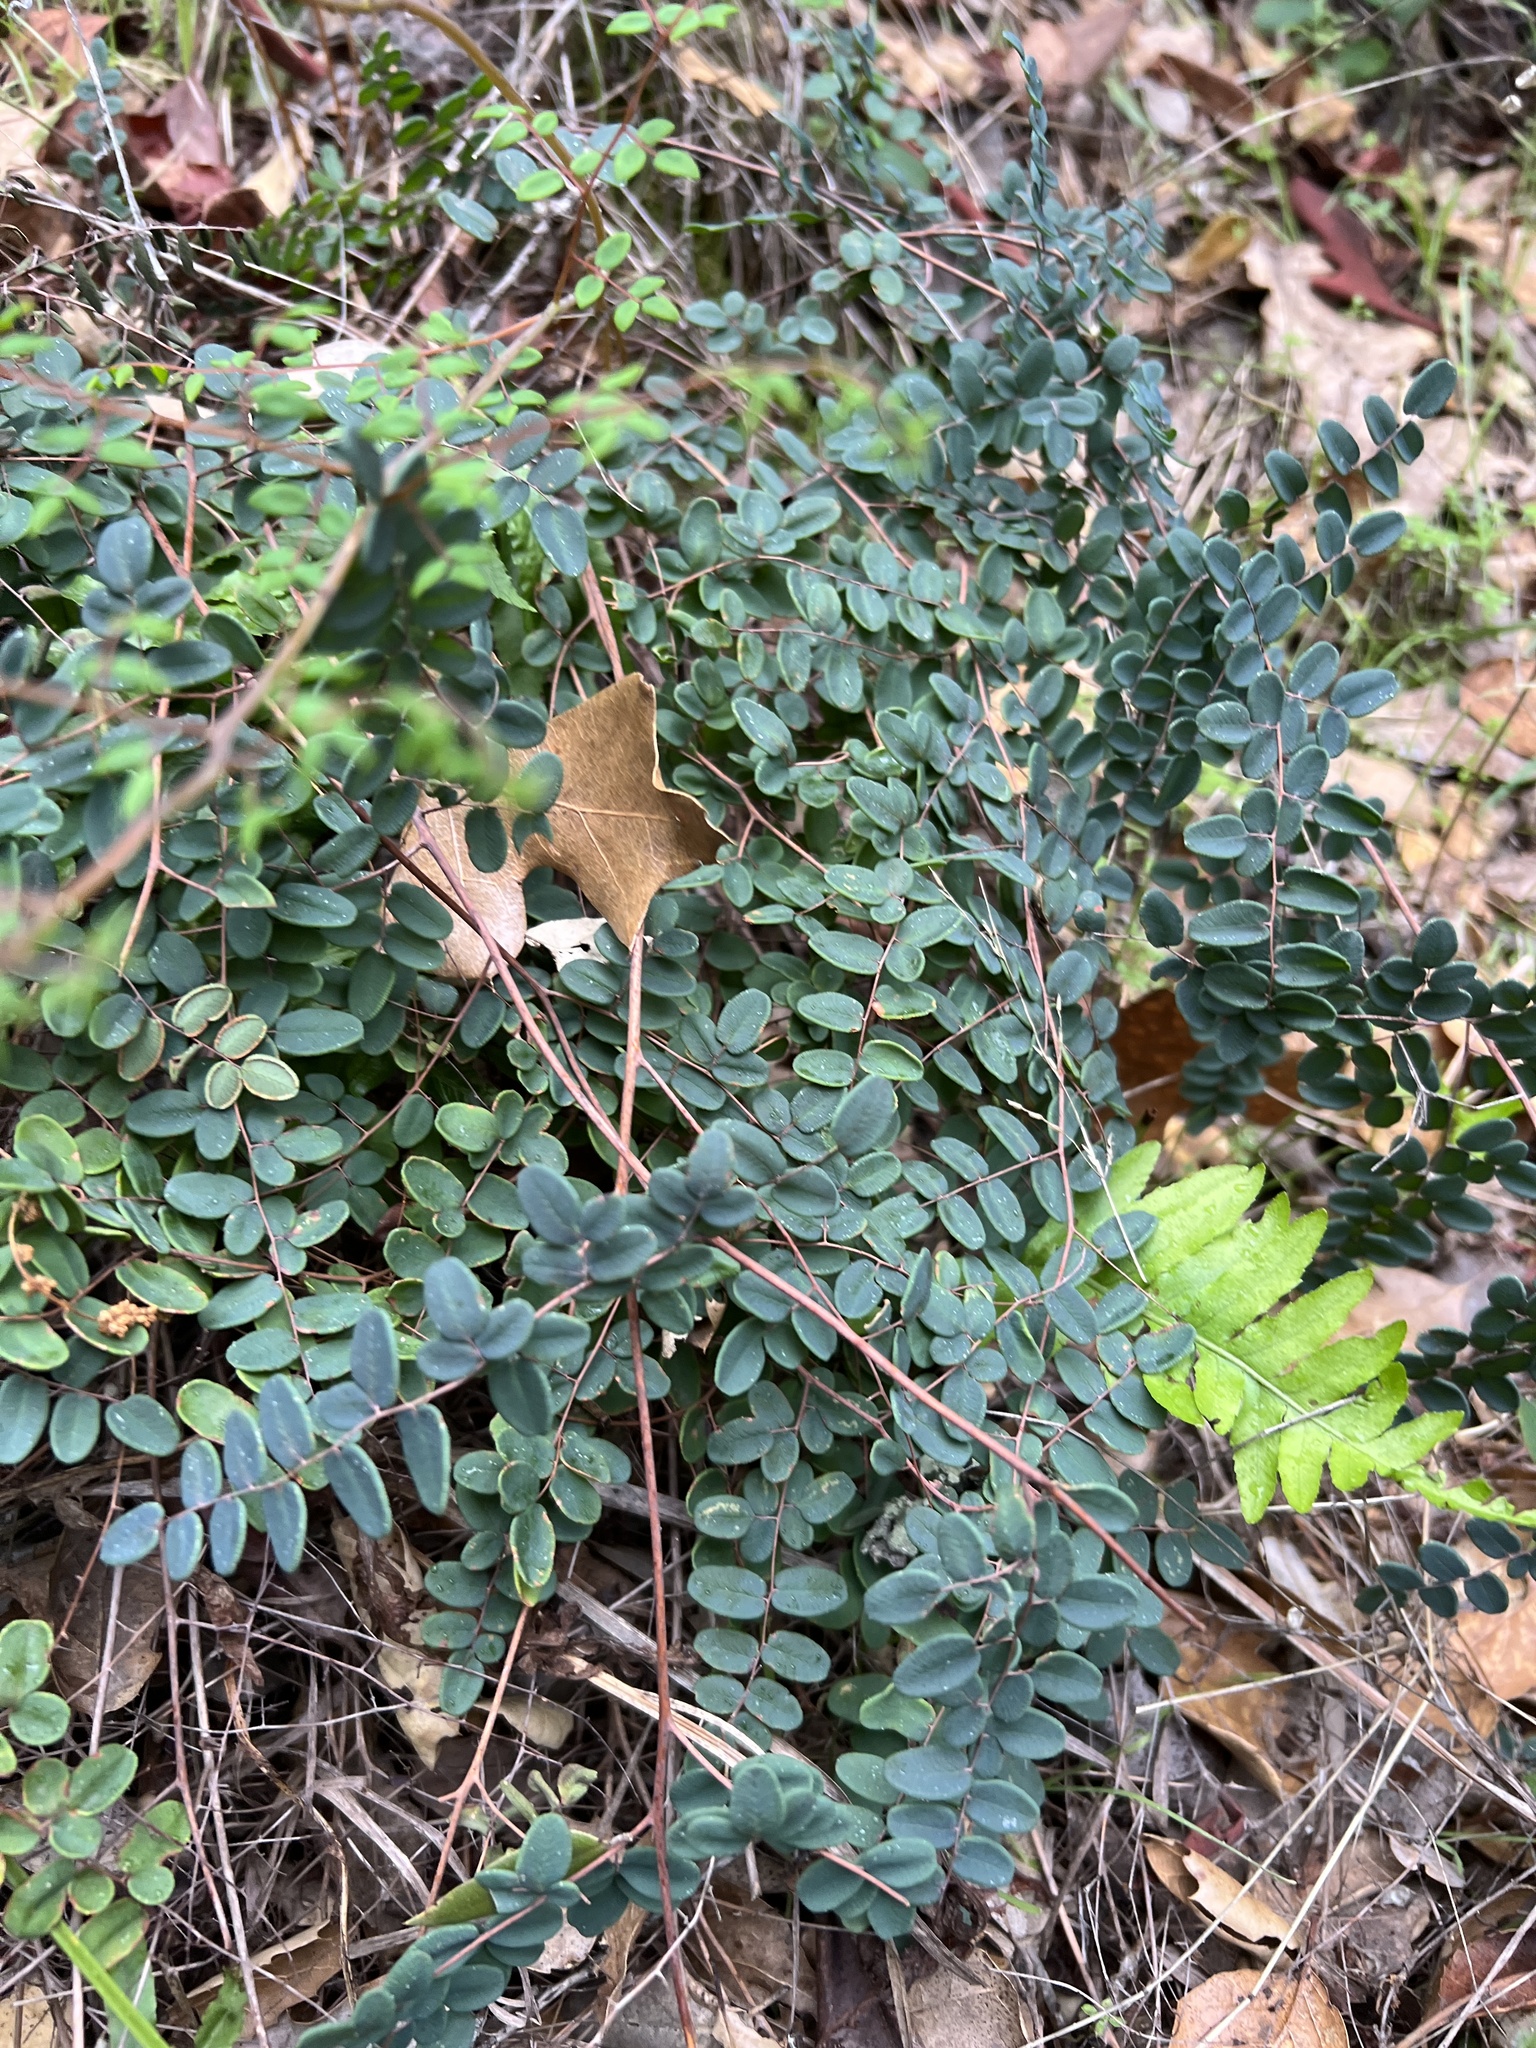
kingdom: Plantae
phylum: Tracheophyta
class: Polypodiopsida
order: Polypodiales
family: Pteridaceae
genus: Pellaea
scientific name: Pellaea andromedifolia
